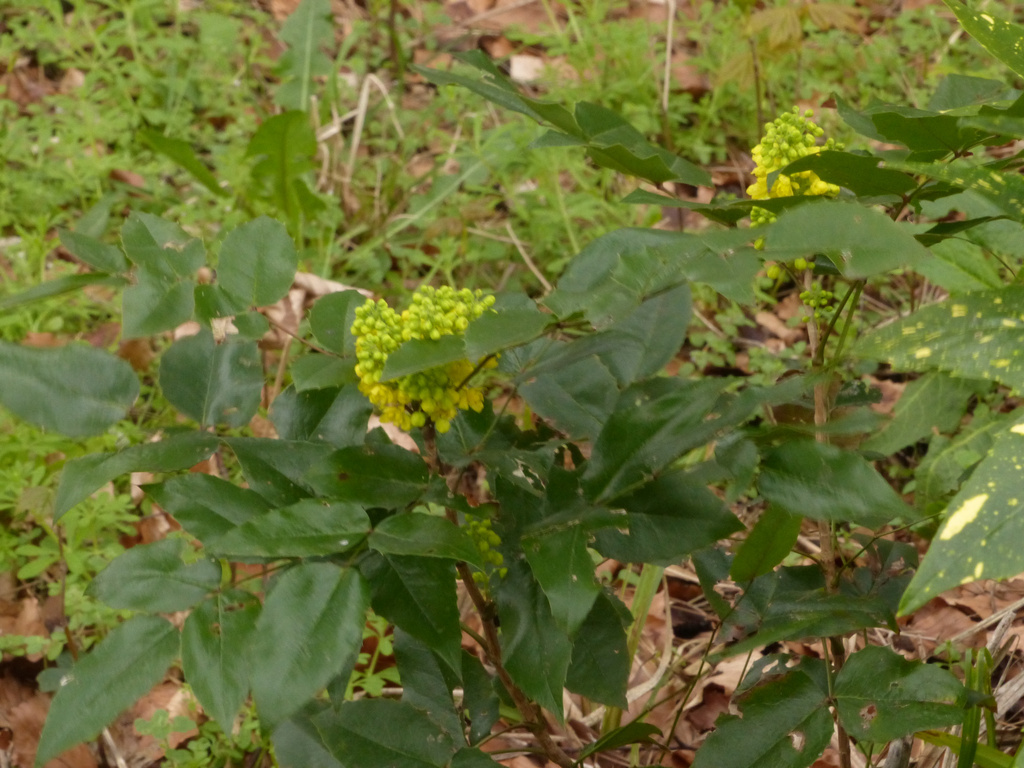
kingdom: Plantae
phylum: Tracheophyta
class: Magnoliopsida
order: Ranunculales
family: Berberidaceae
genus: Mahonia
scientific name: Mahonia aquifolium
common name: Oregon-grape
